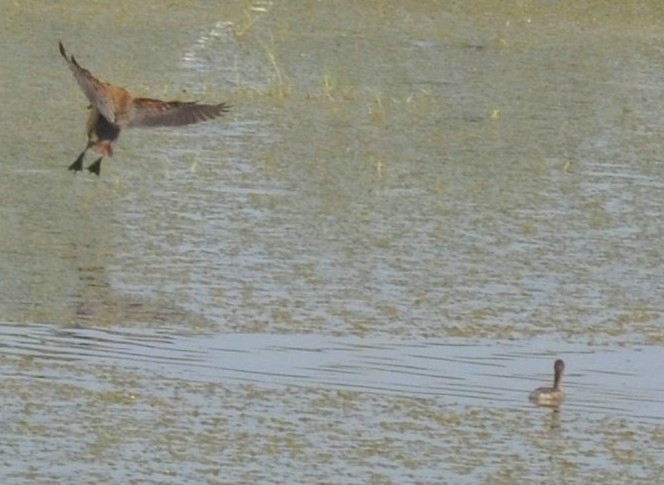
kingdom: Animalia
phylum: Chordata
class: Aves
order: Anseriformes
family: Anatidae
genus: Dendrocygna
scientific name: Dendrocygna javanica
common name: Lesser whistling-duck
